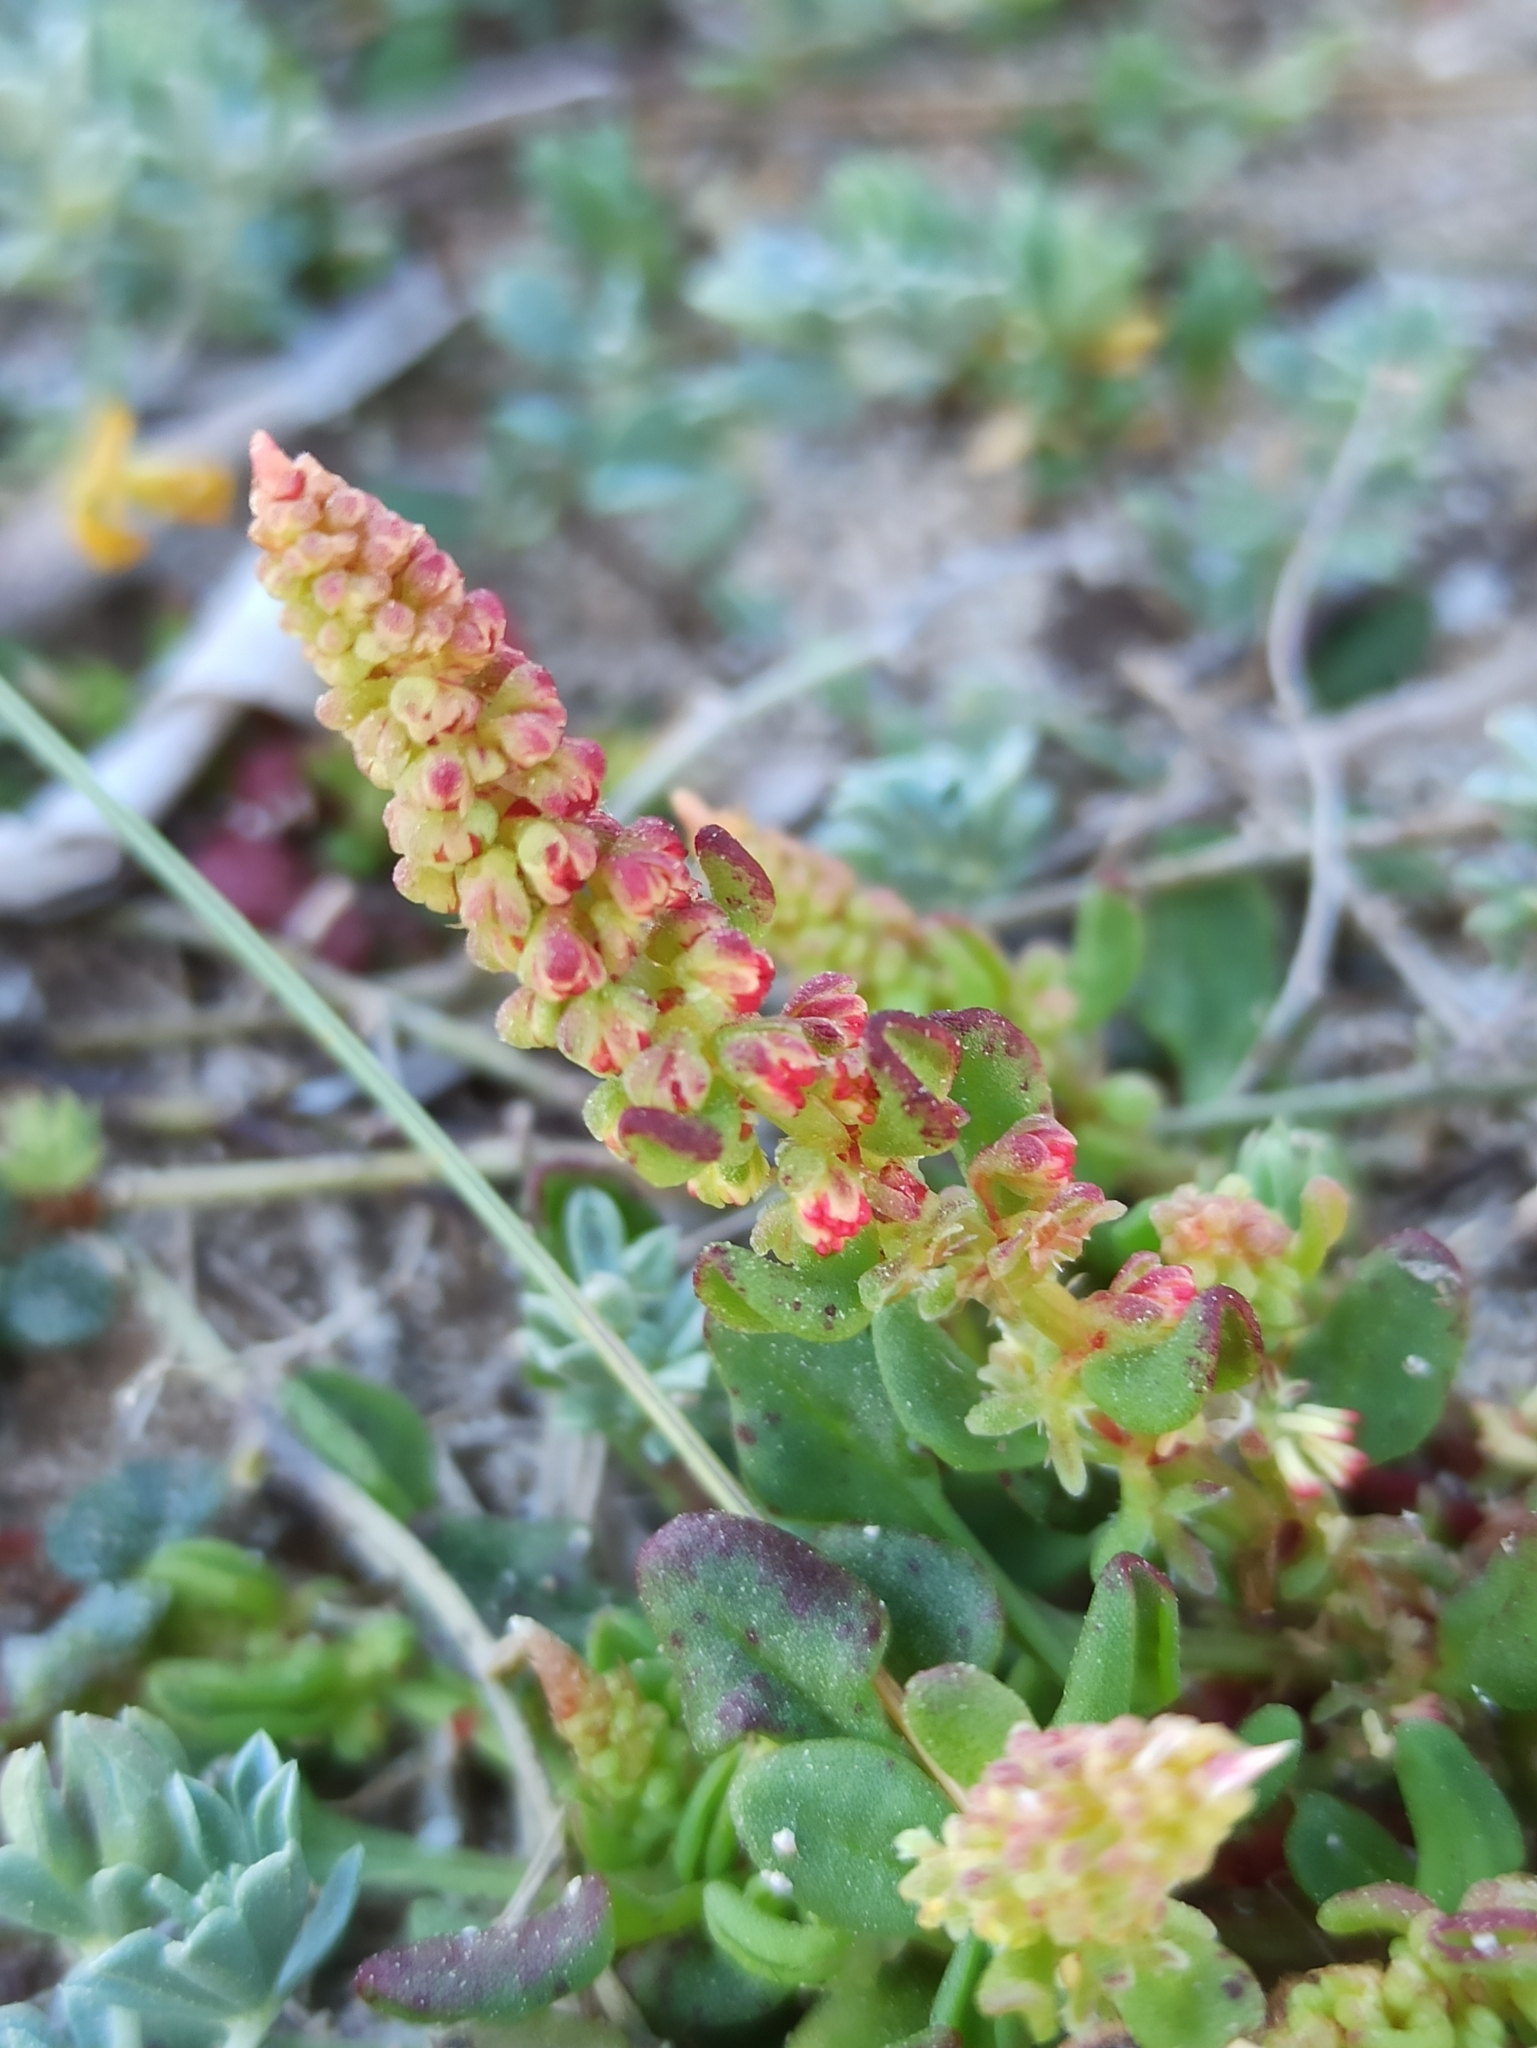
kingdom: Plantae
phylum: Tracheophyta
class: Magnoliopsida
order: Caryophyllales
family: Polygonaceae
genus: Rumex
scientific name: Rumex bucephalophorus
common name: Red dock
